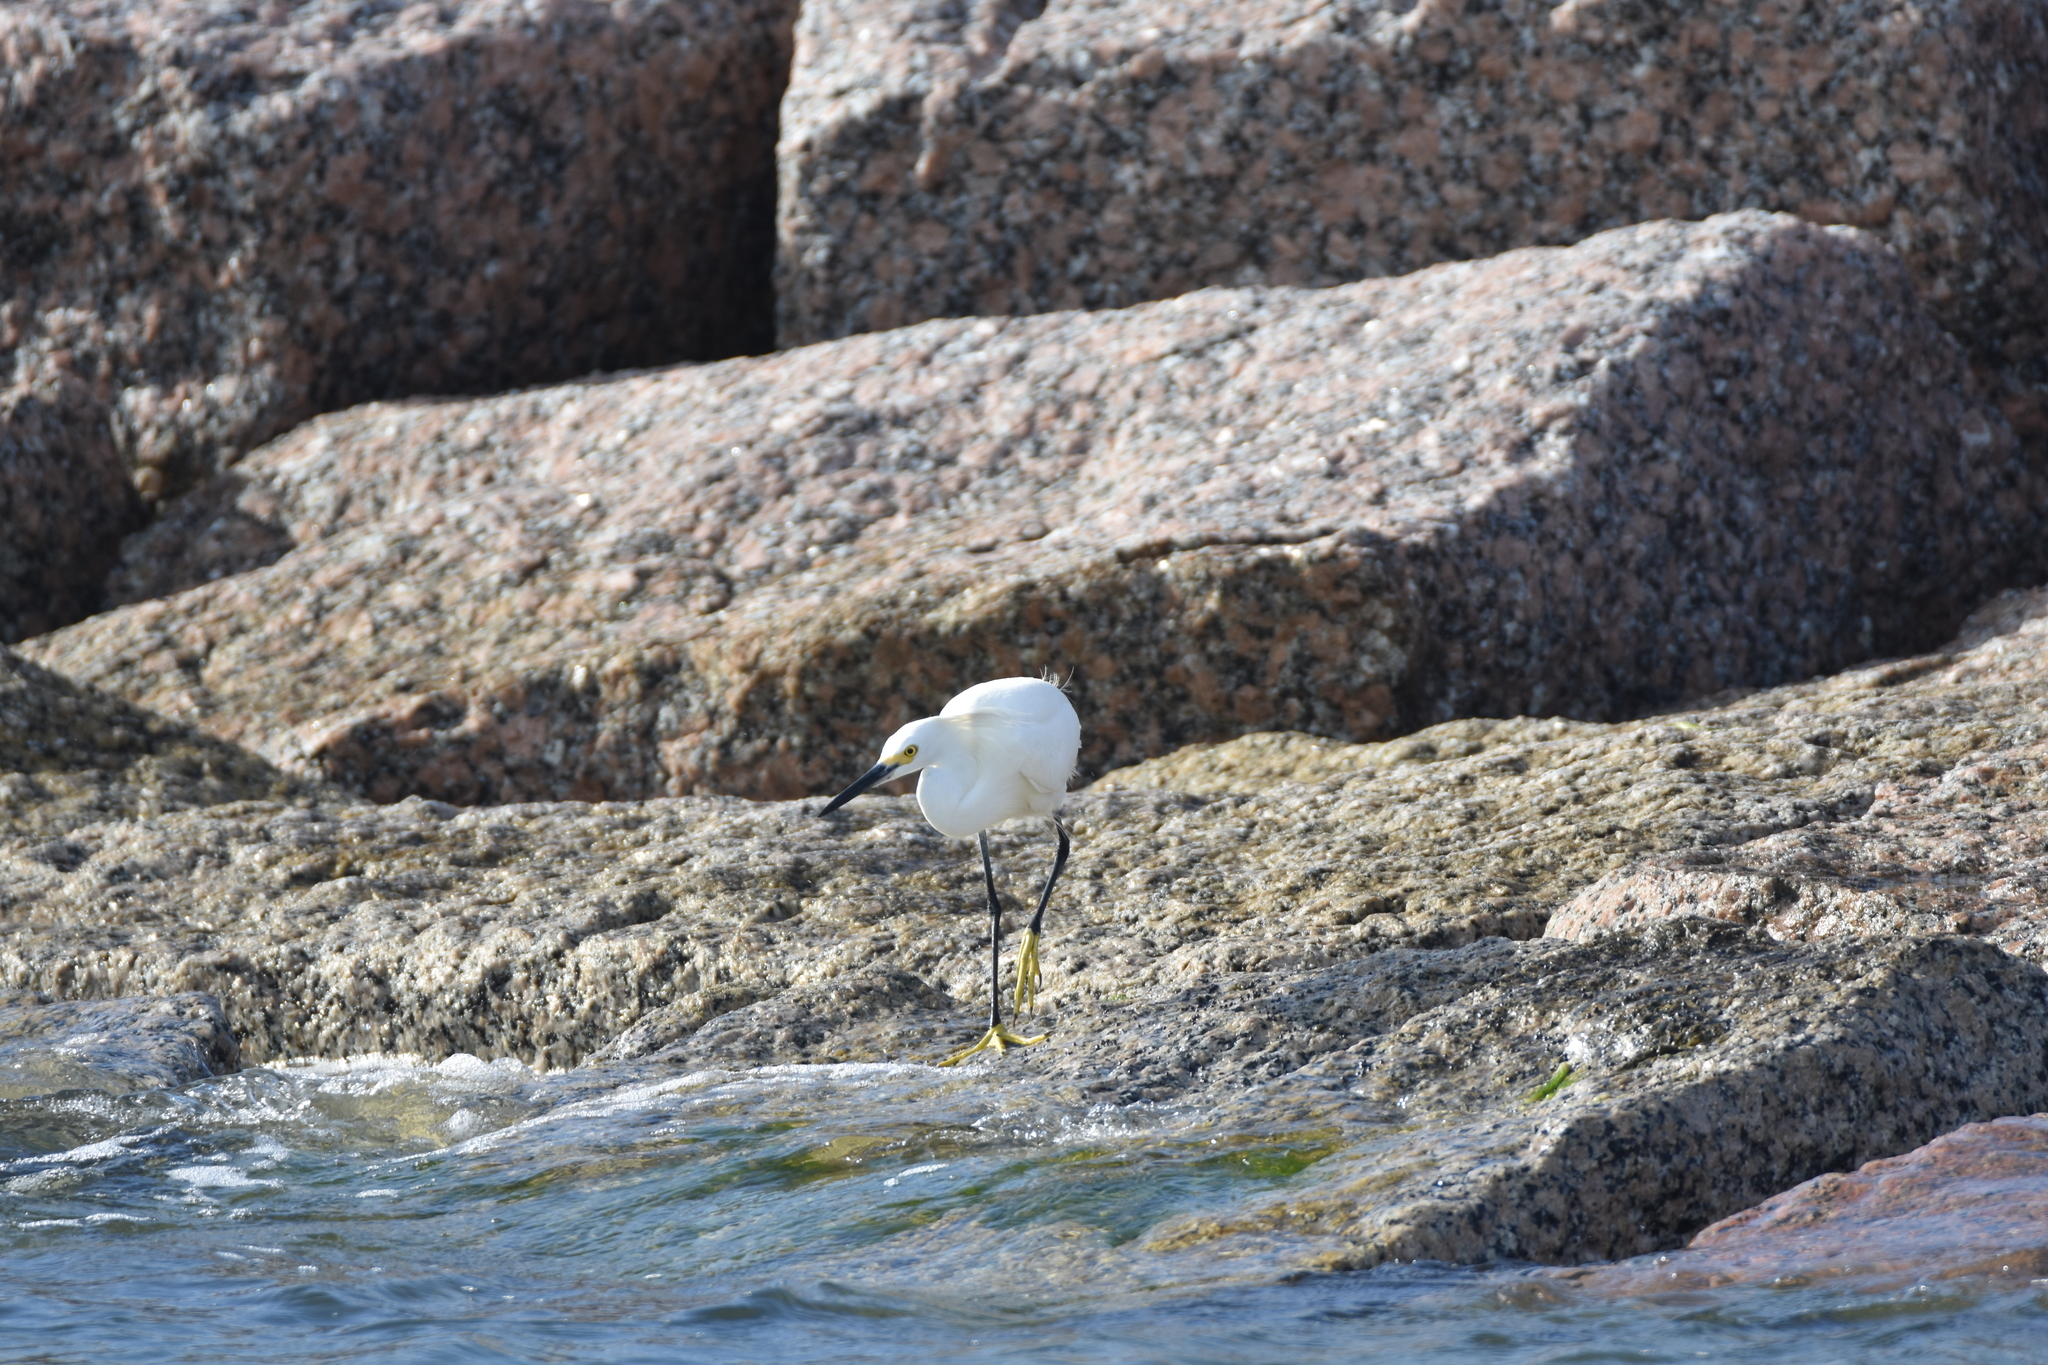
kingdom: Animalia
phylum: Chordata
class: Aves
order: Pelecaniformes
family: Ardeidae
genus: Egretta
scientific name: Egretta thula
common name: Snowy egret
